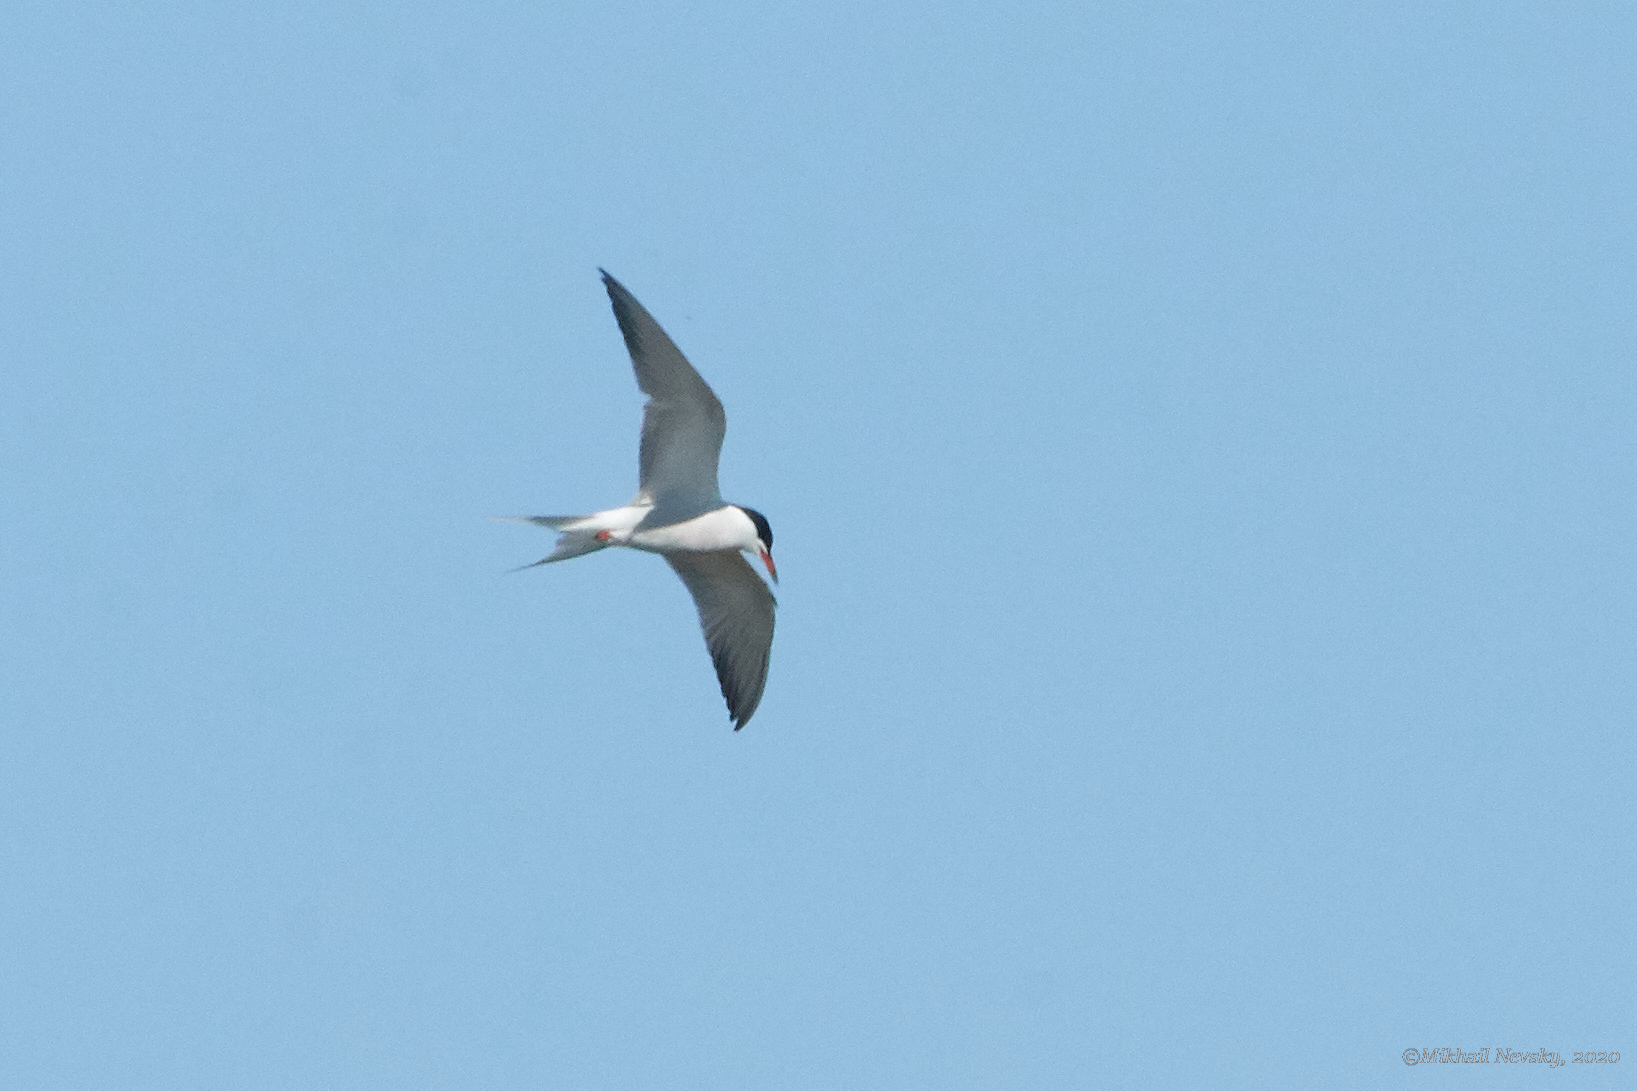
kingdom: Animalia
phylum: Chordata
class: Aves
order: Charadriiformes
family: Laridae
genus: Sterna
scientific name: Sterna hirundo
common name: Common tern
